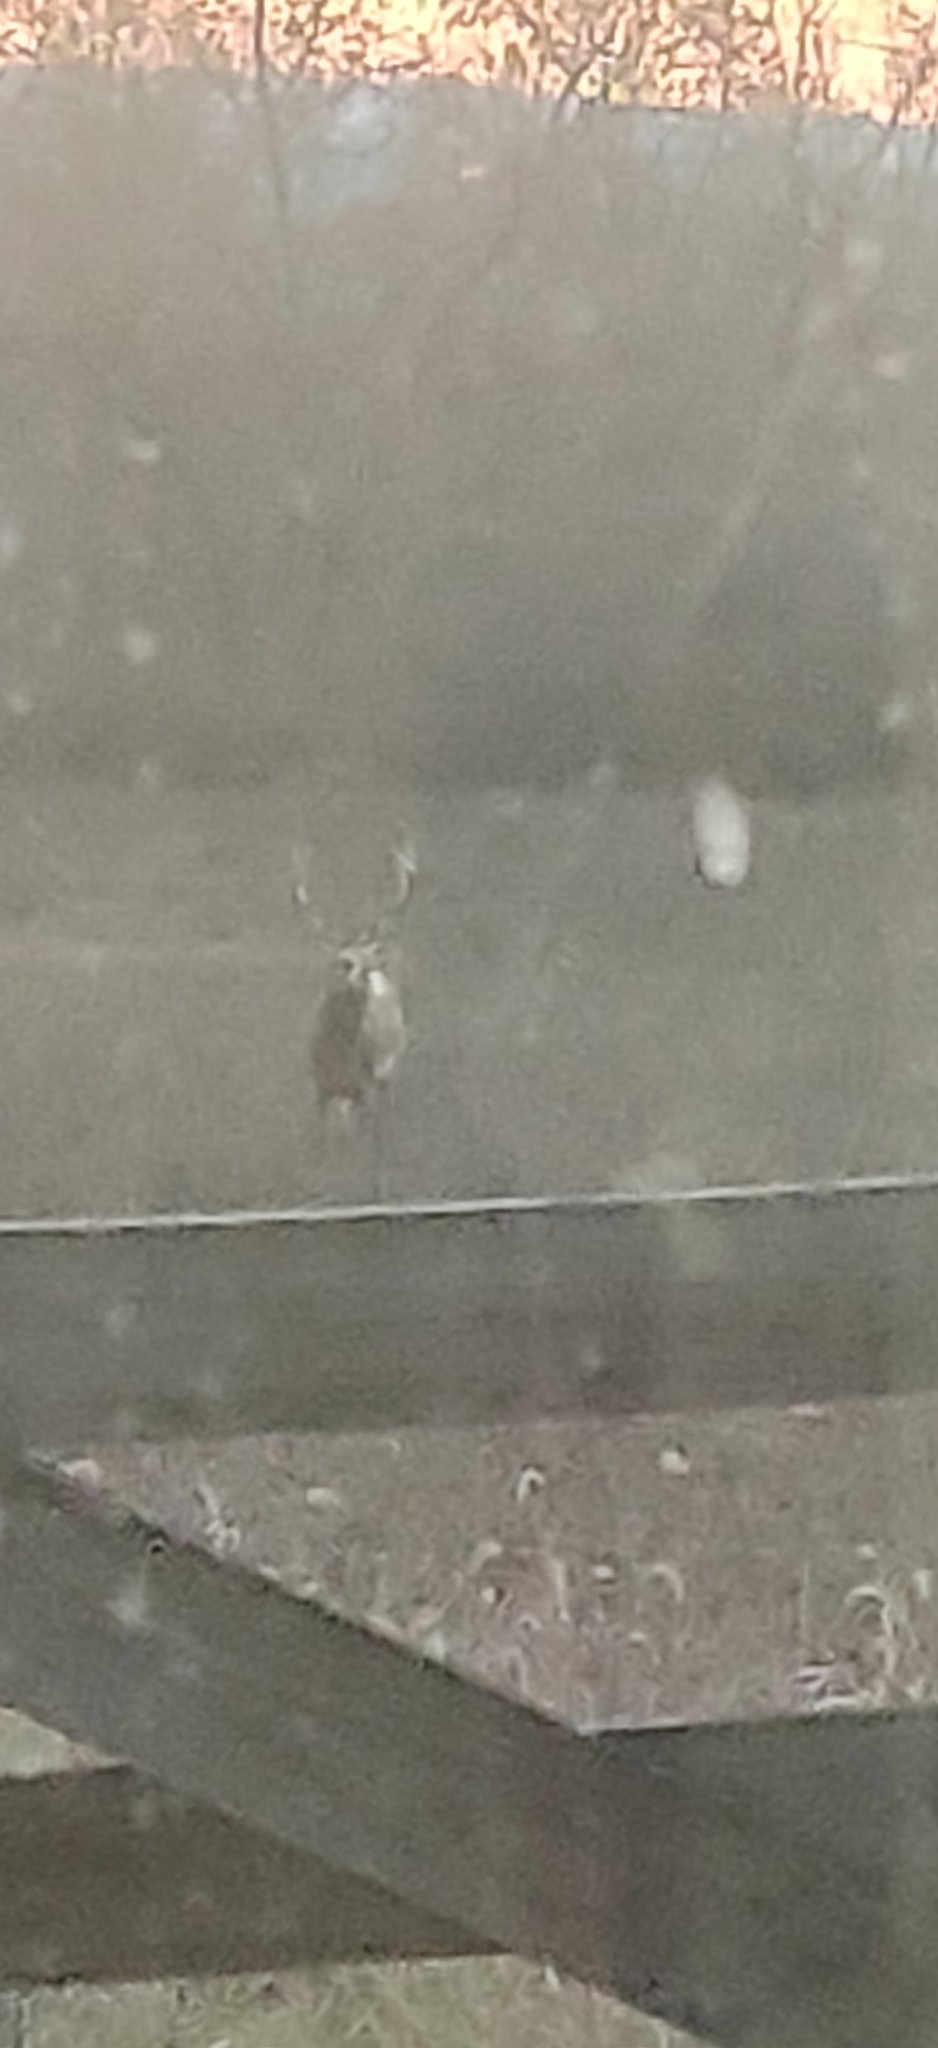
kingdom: Animalia
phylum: Chordata
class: Mammalia
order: Artiodactyla
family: Cervidae
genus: Odocoileus
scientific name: Odocoileus virginianus
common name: White-tailed deer
